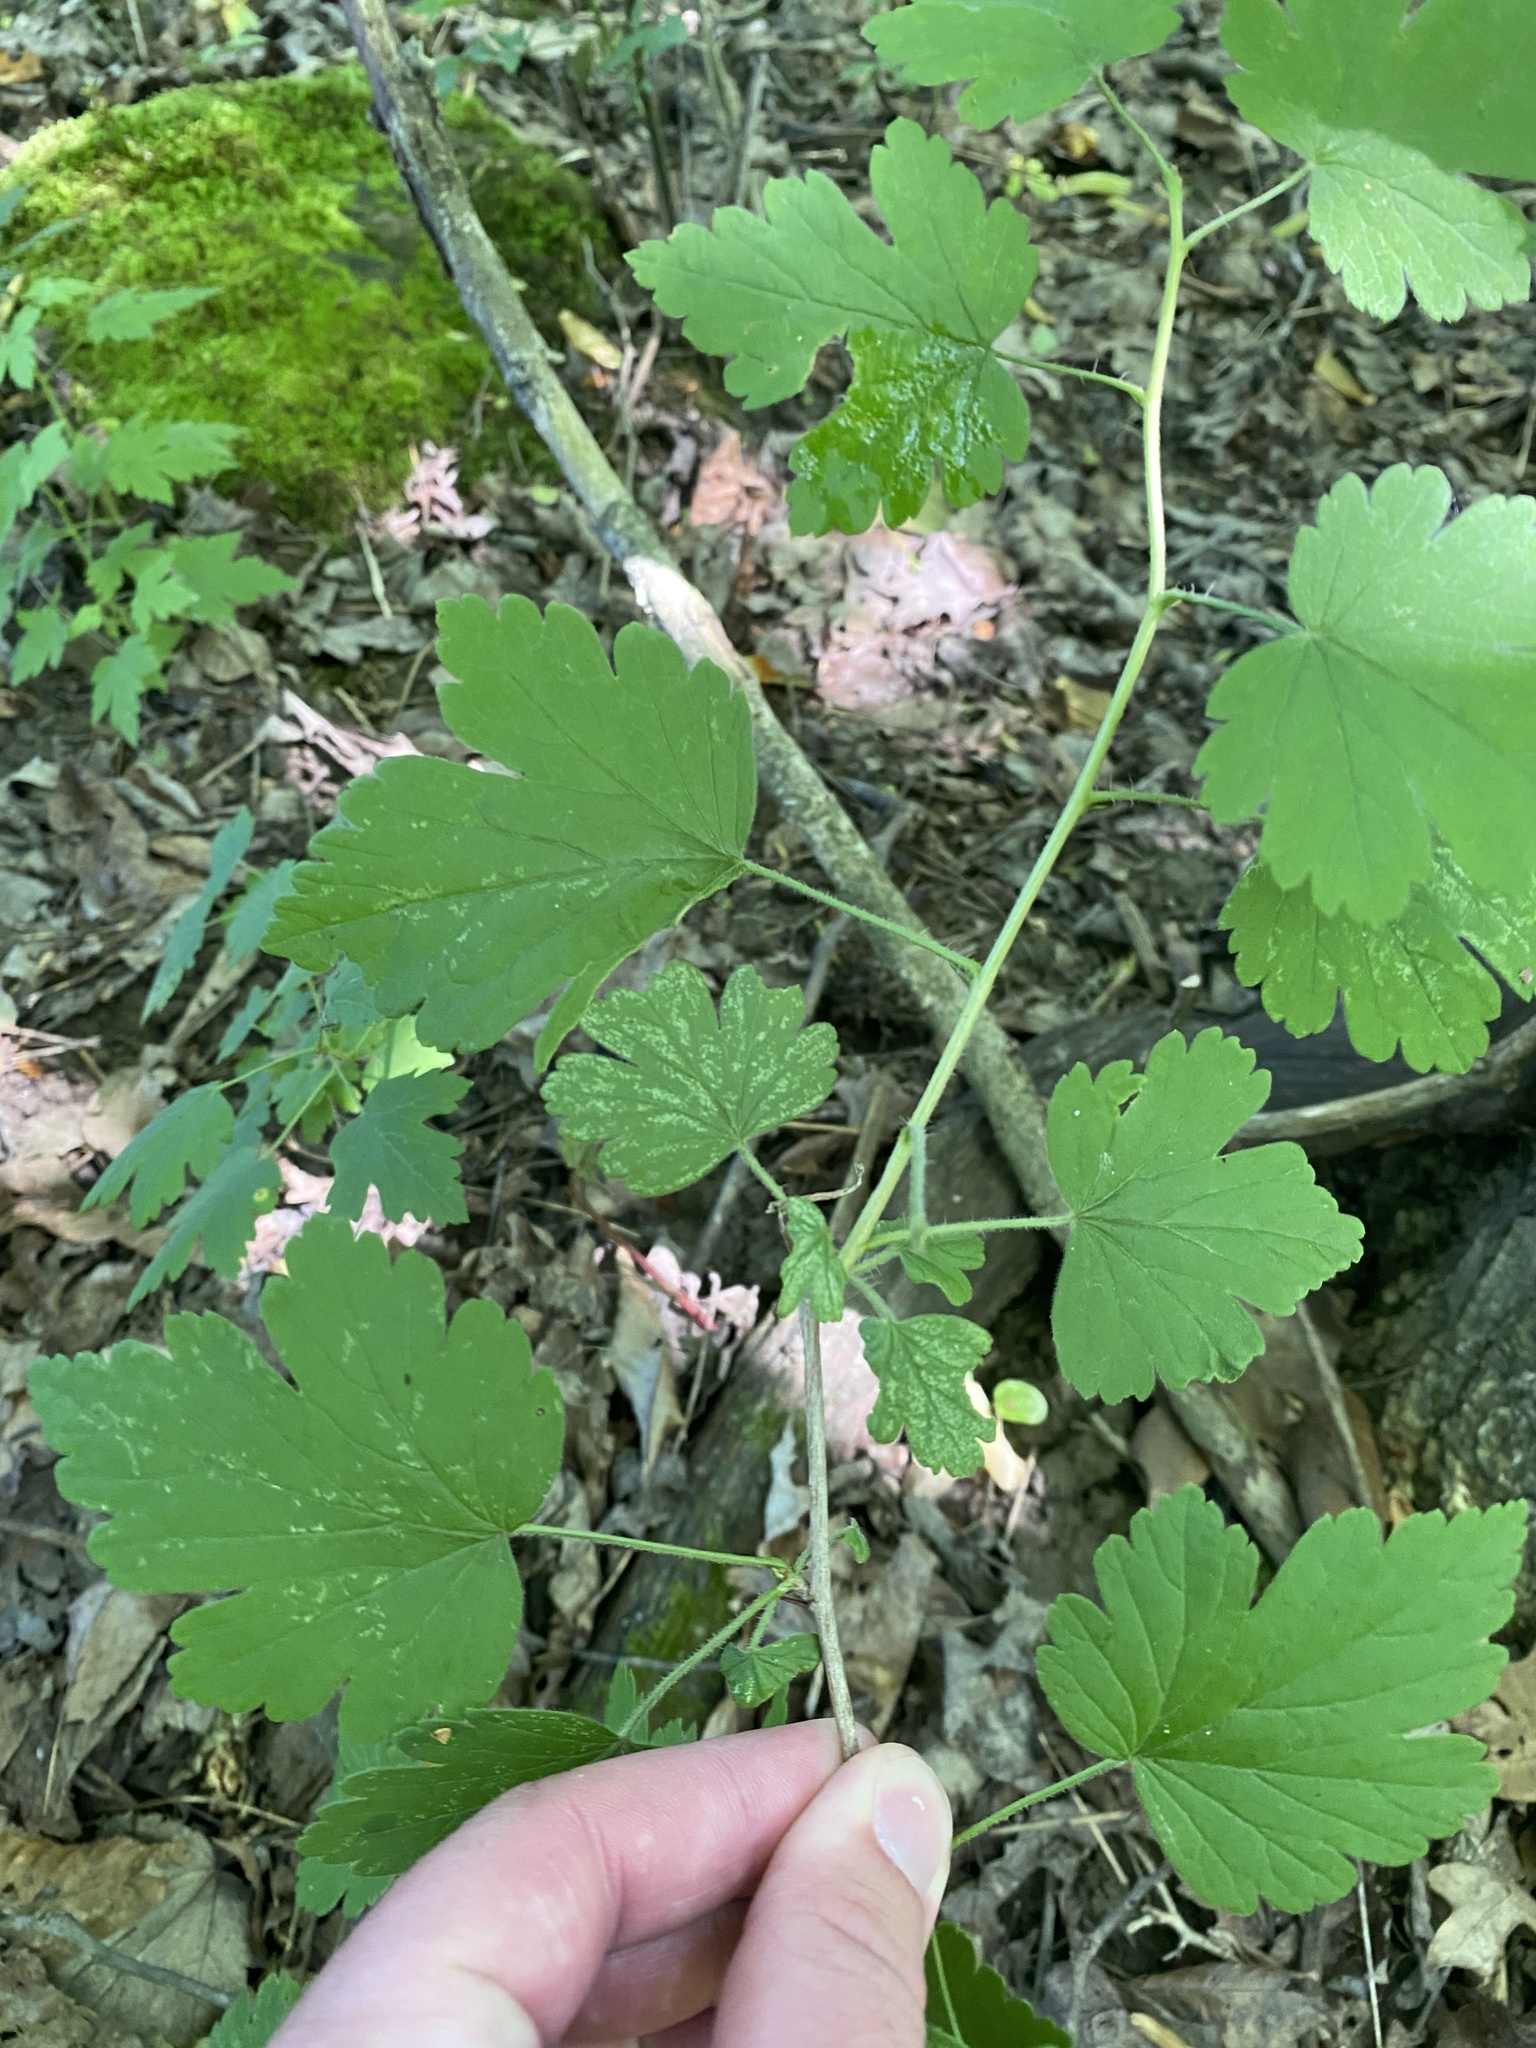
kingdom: Plantae
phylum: Tracheophyta
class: Magnoliopsida
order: Saxifragales
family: Grossulariaceae
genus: Ribes
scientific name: Ribes cynosbati
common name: American gooseberry
